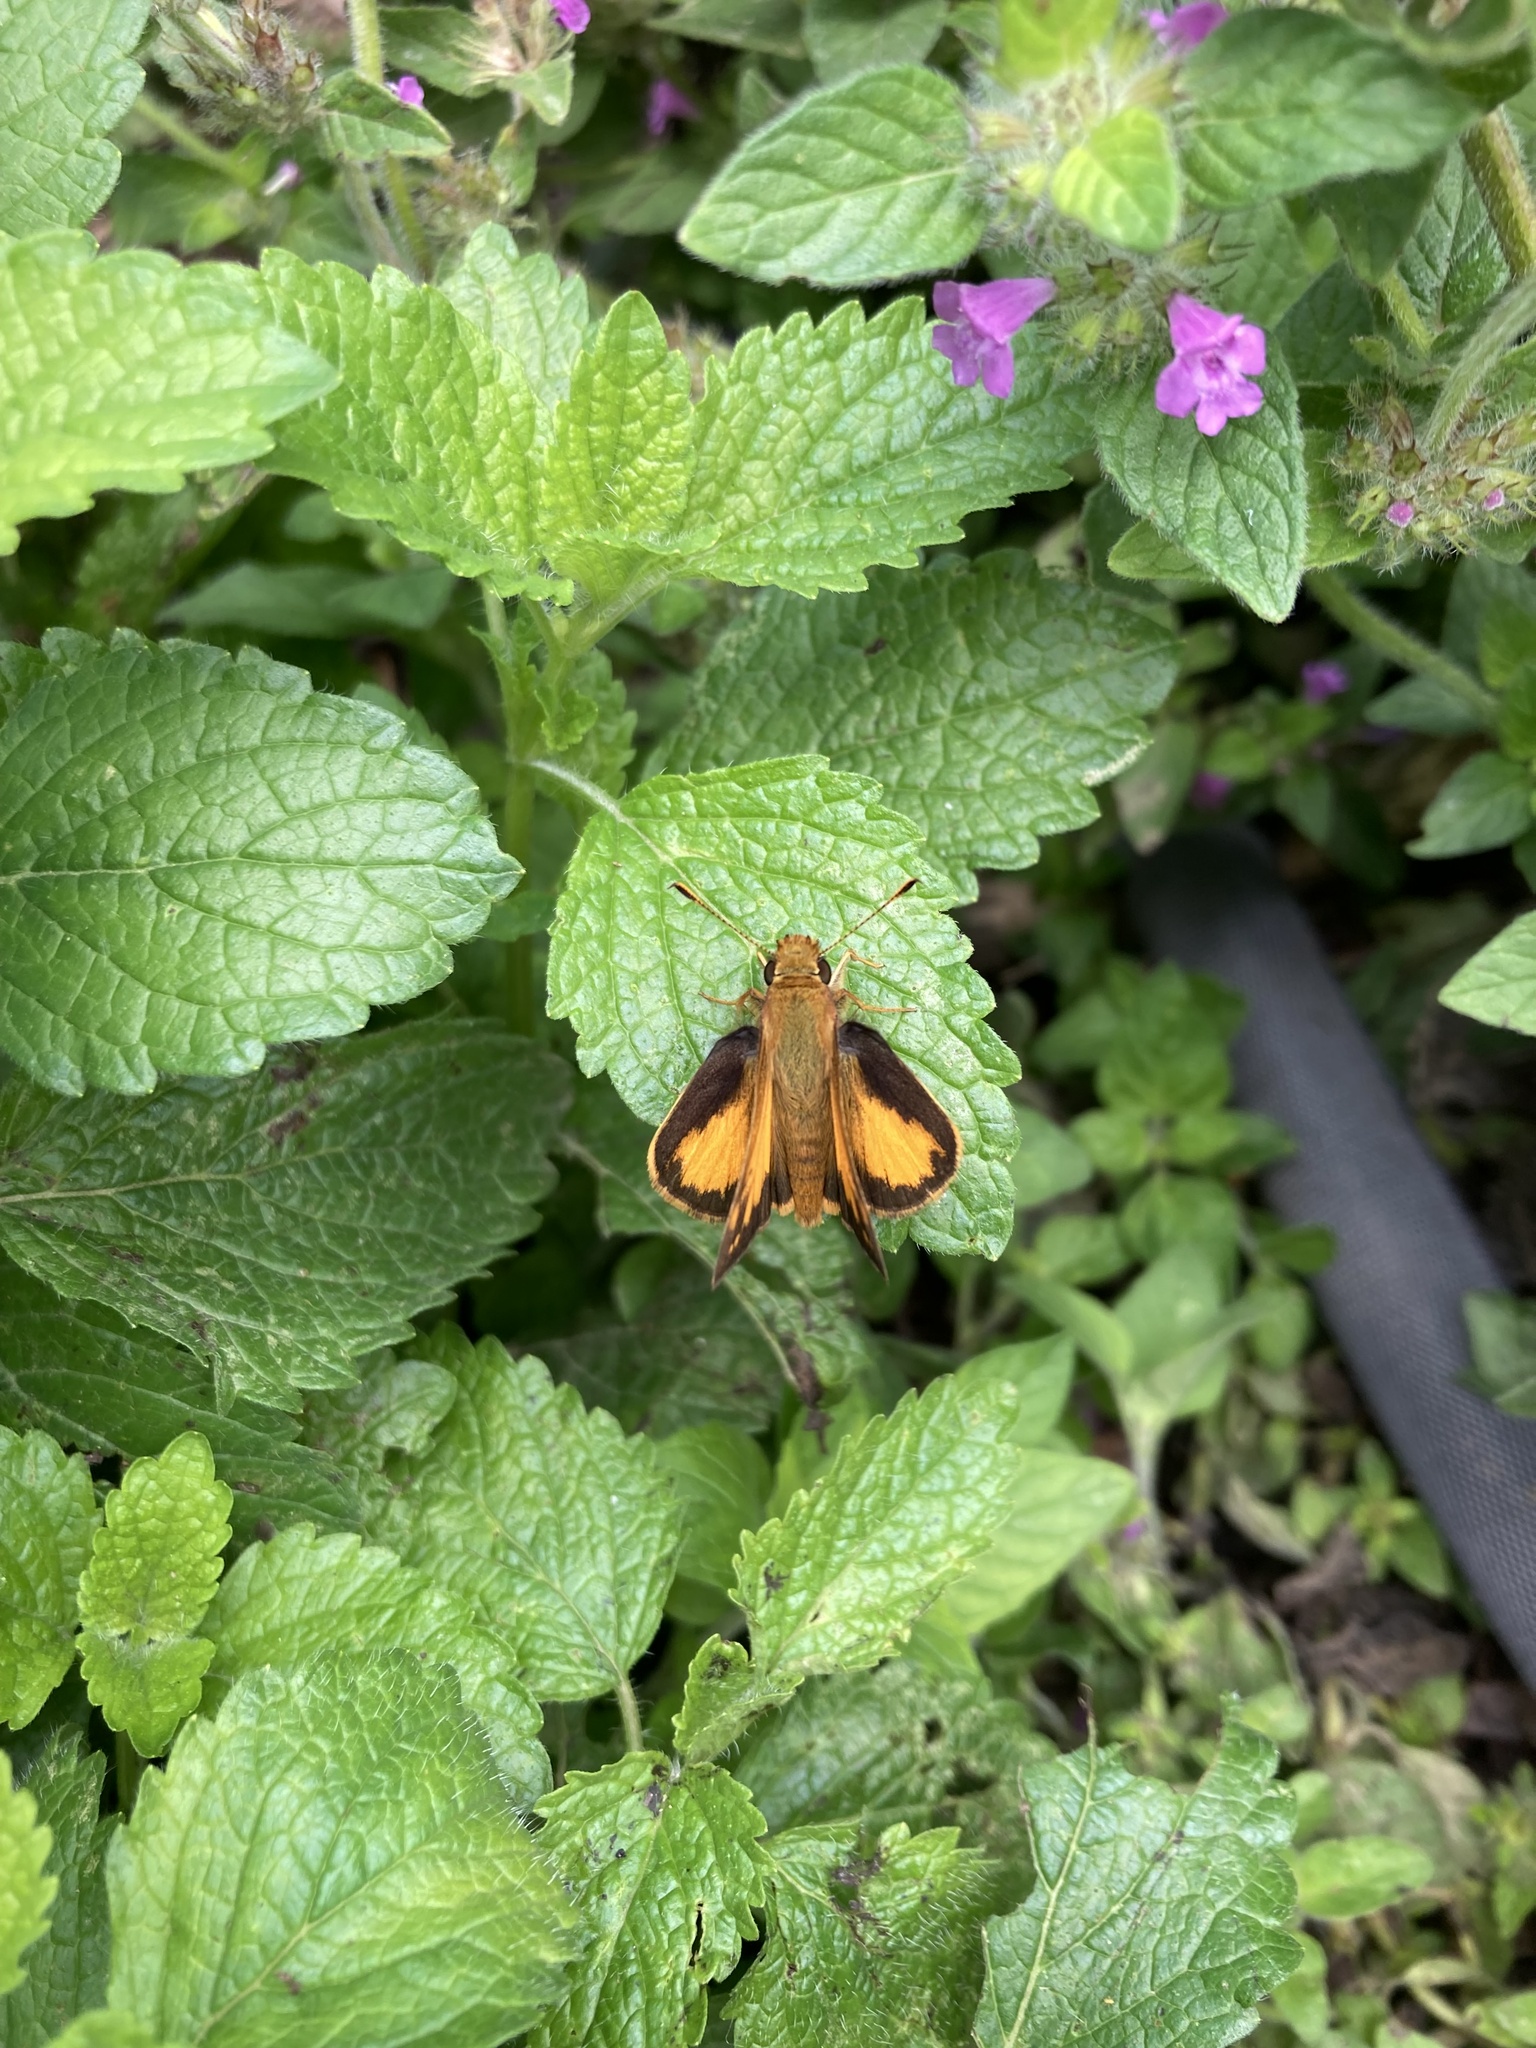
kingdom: Animalia
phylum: Arthropoda
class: Insecta
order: Lepidoptera
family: Hesperiidae
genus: Lon
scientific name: Lon zabulon
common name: Zabulon skipper
